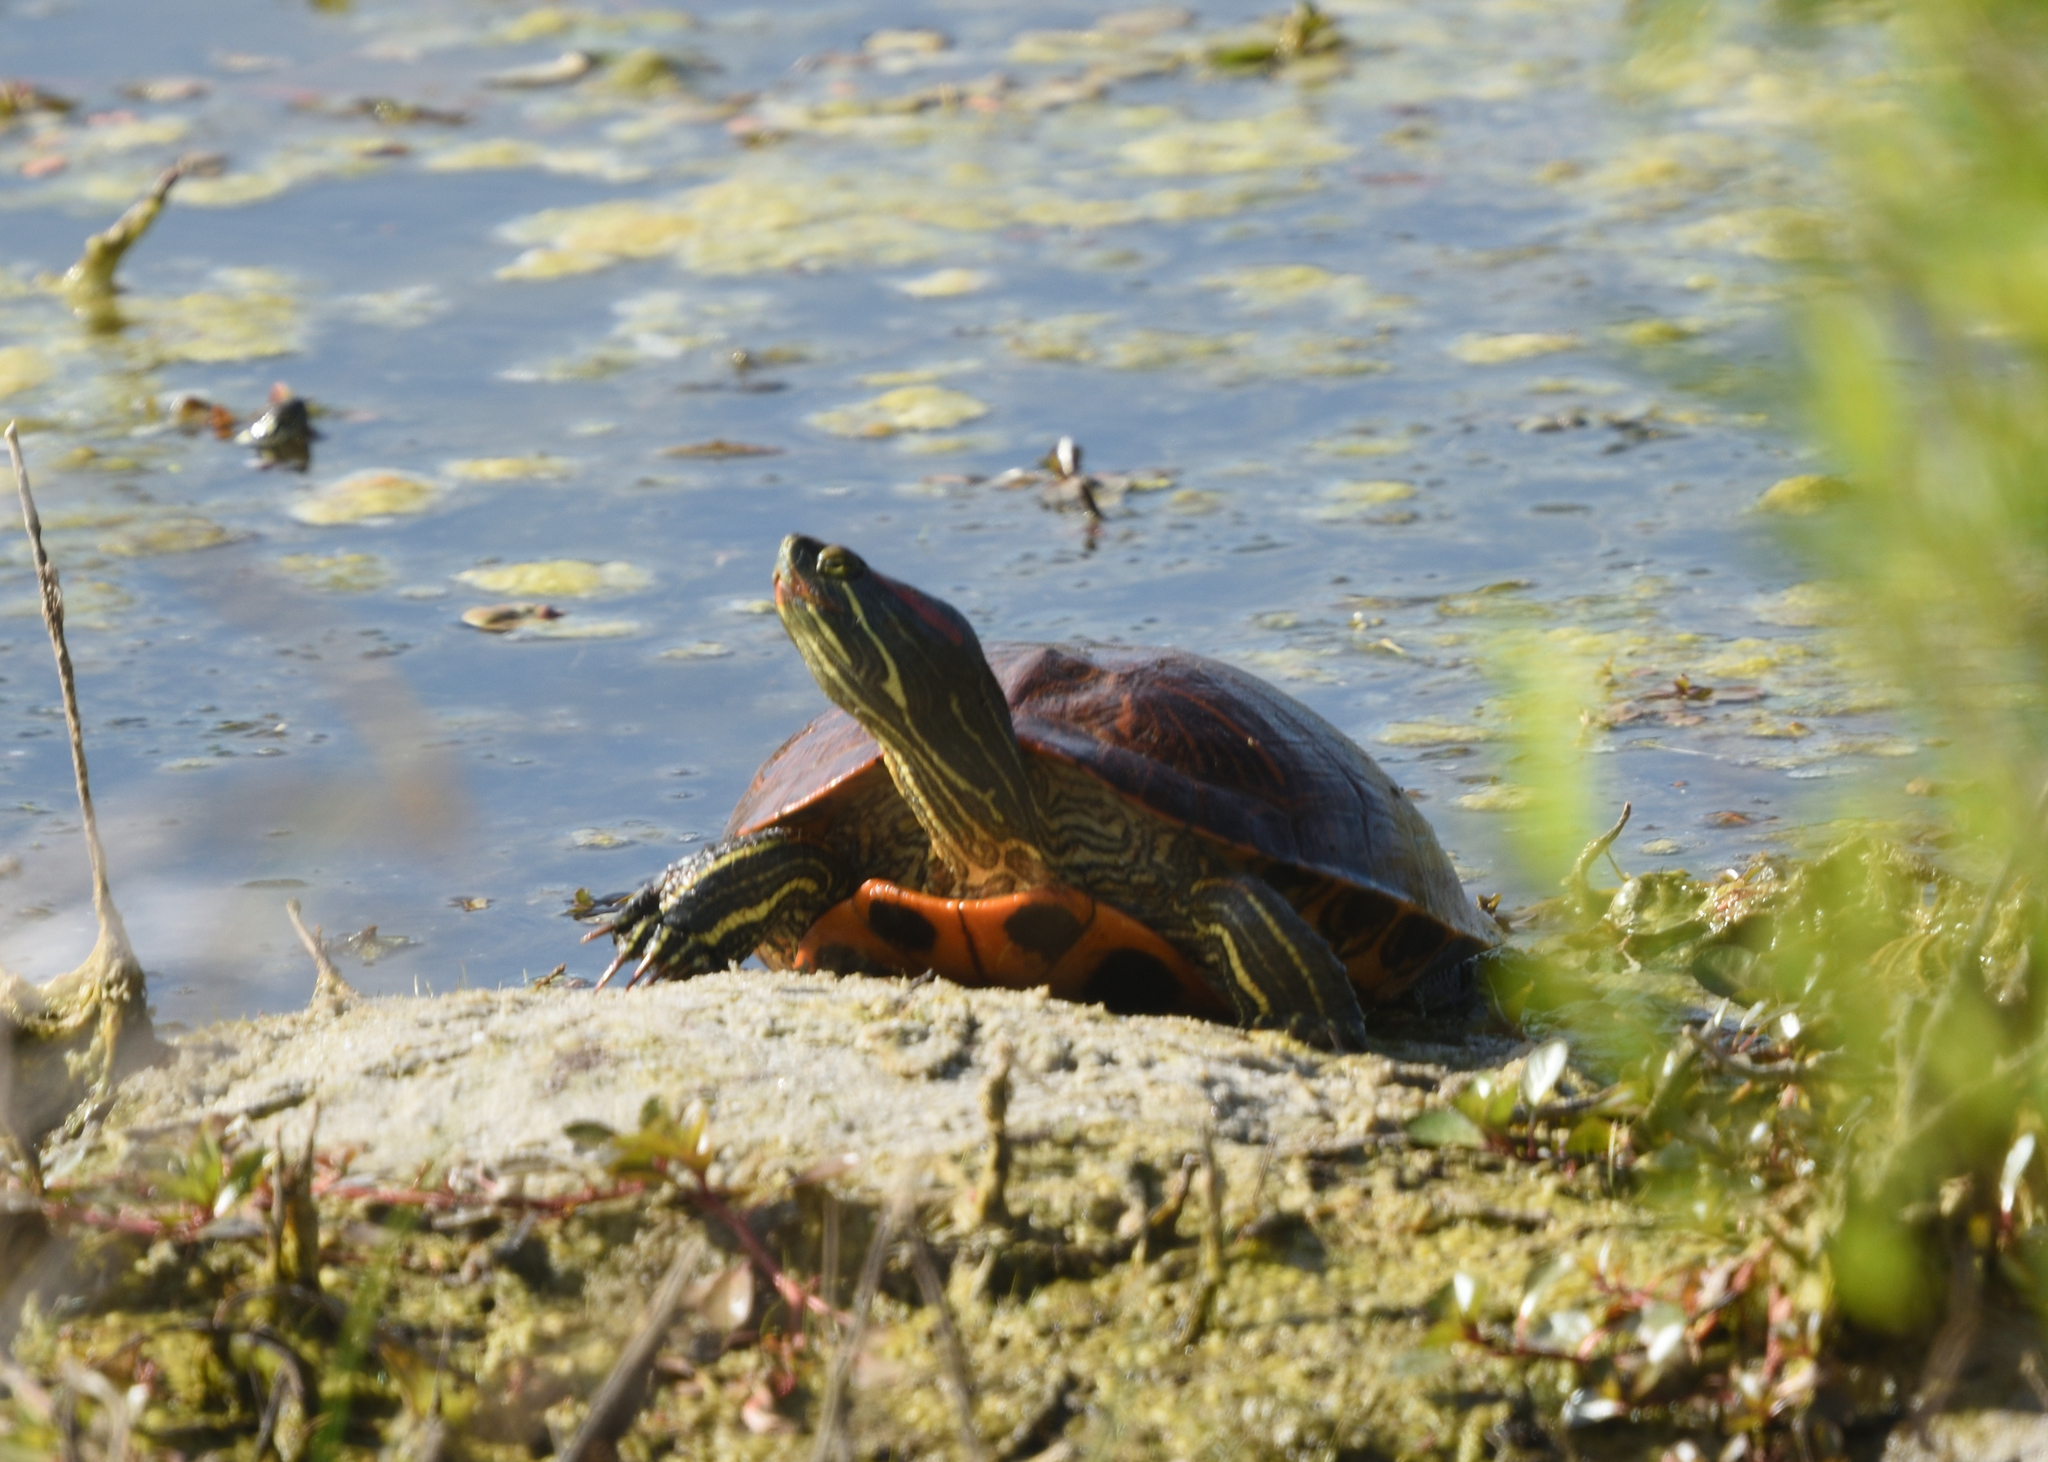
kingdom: Animalia
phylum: Chordata
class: Testudines
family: Emydidae
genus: Trachemys
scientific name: Trachemys scripta
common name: Slider
